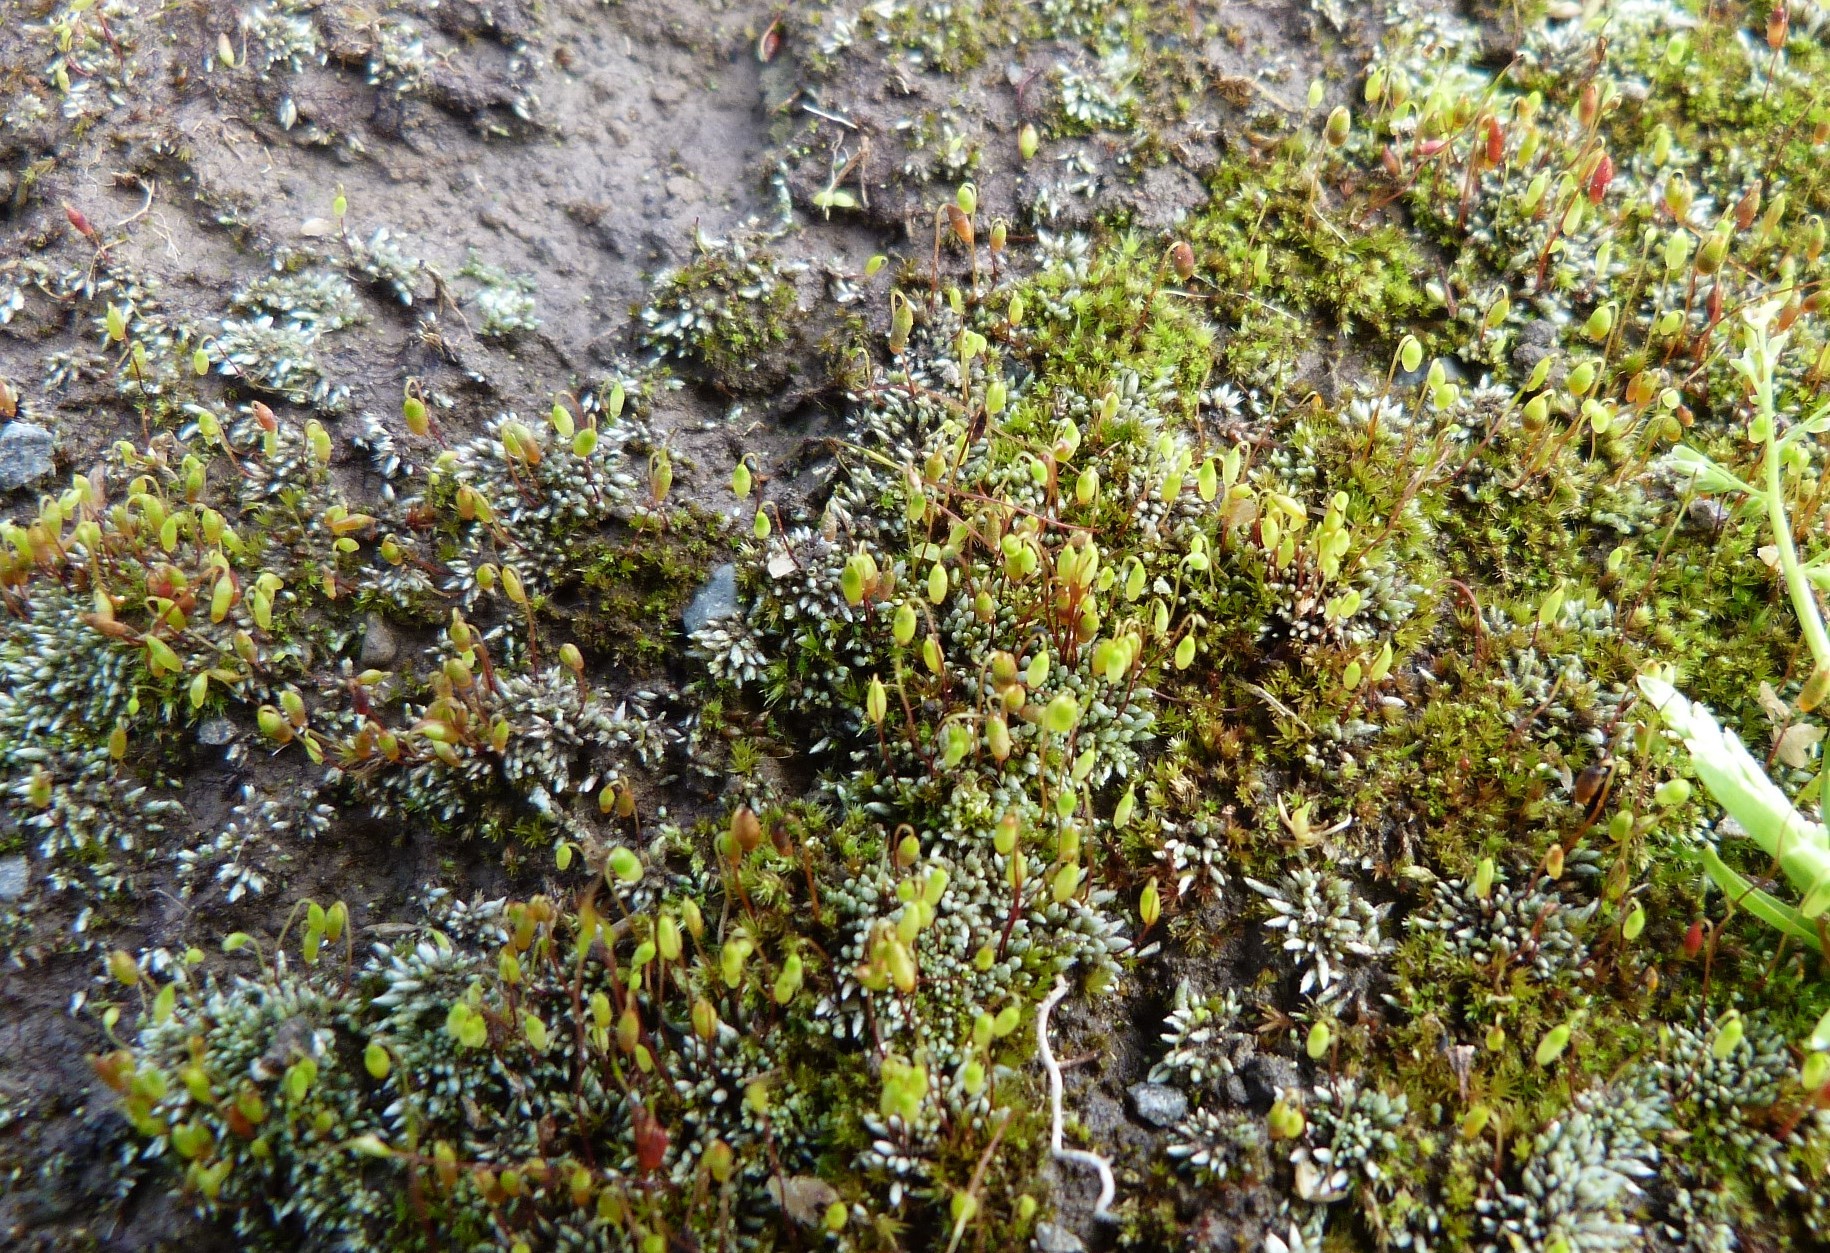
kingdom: Plantae
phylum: Bryophyta
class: Bryopsida
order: Bryales
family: Bryaceae
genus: Bryum
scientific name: Bryum argenteum
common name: Silver-moss
